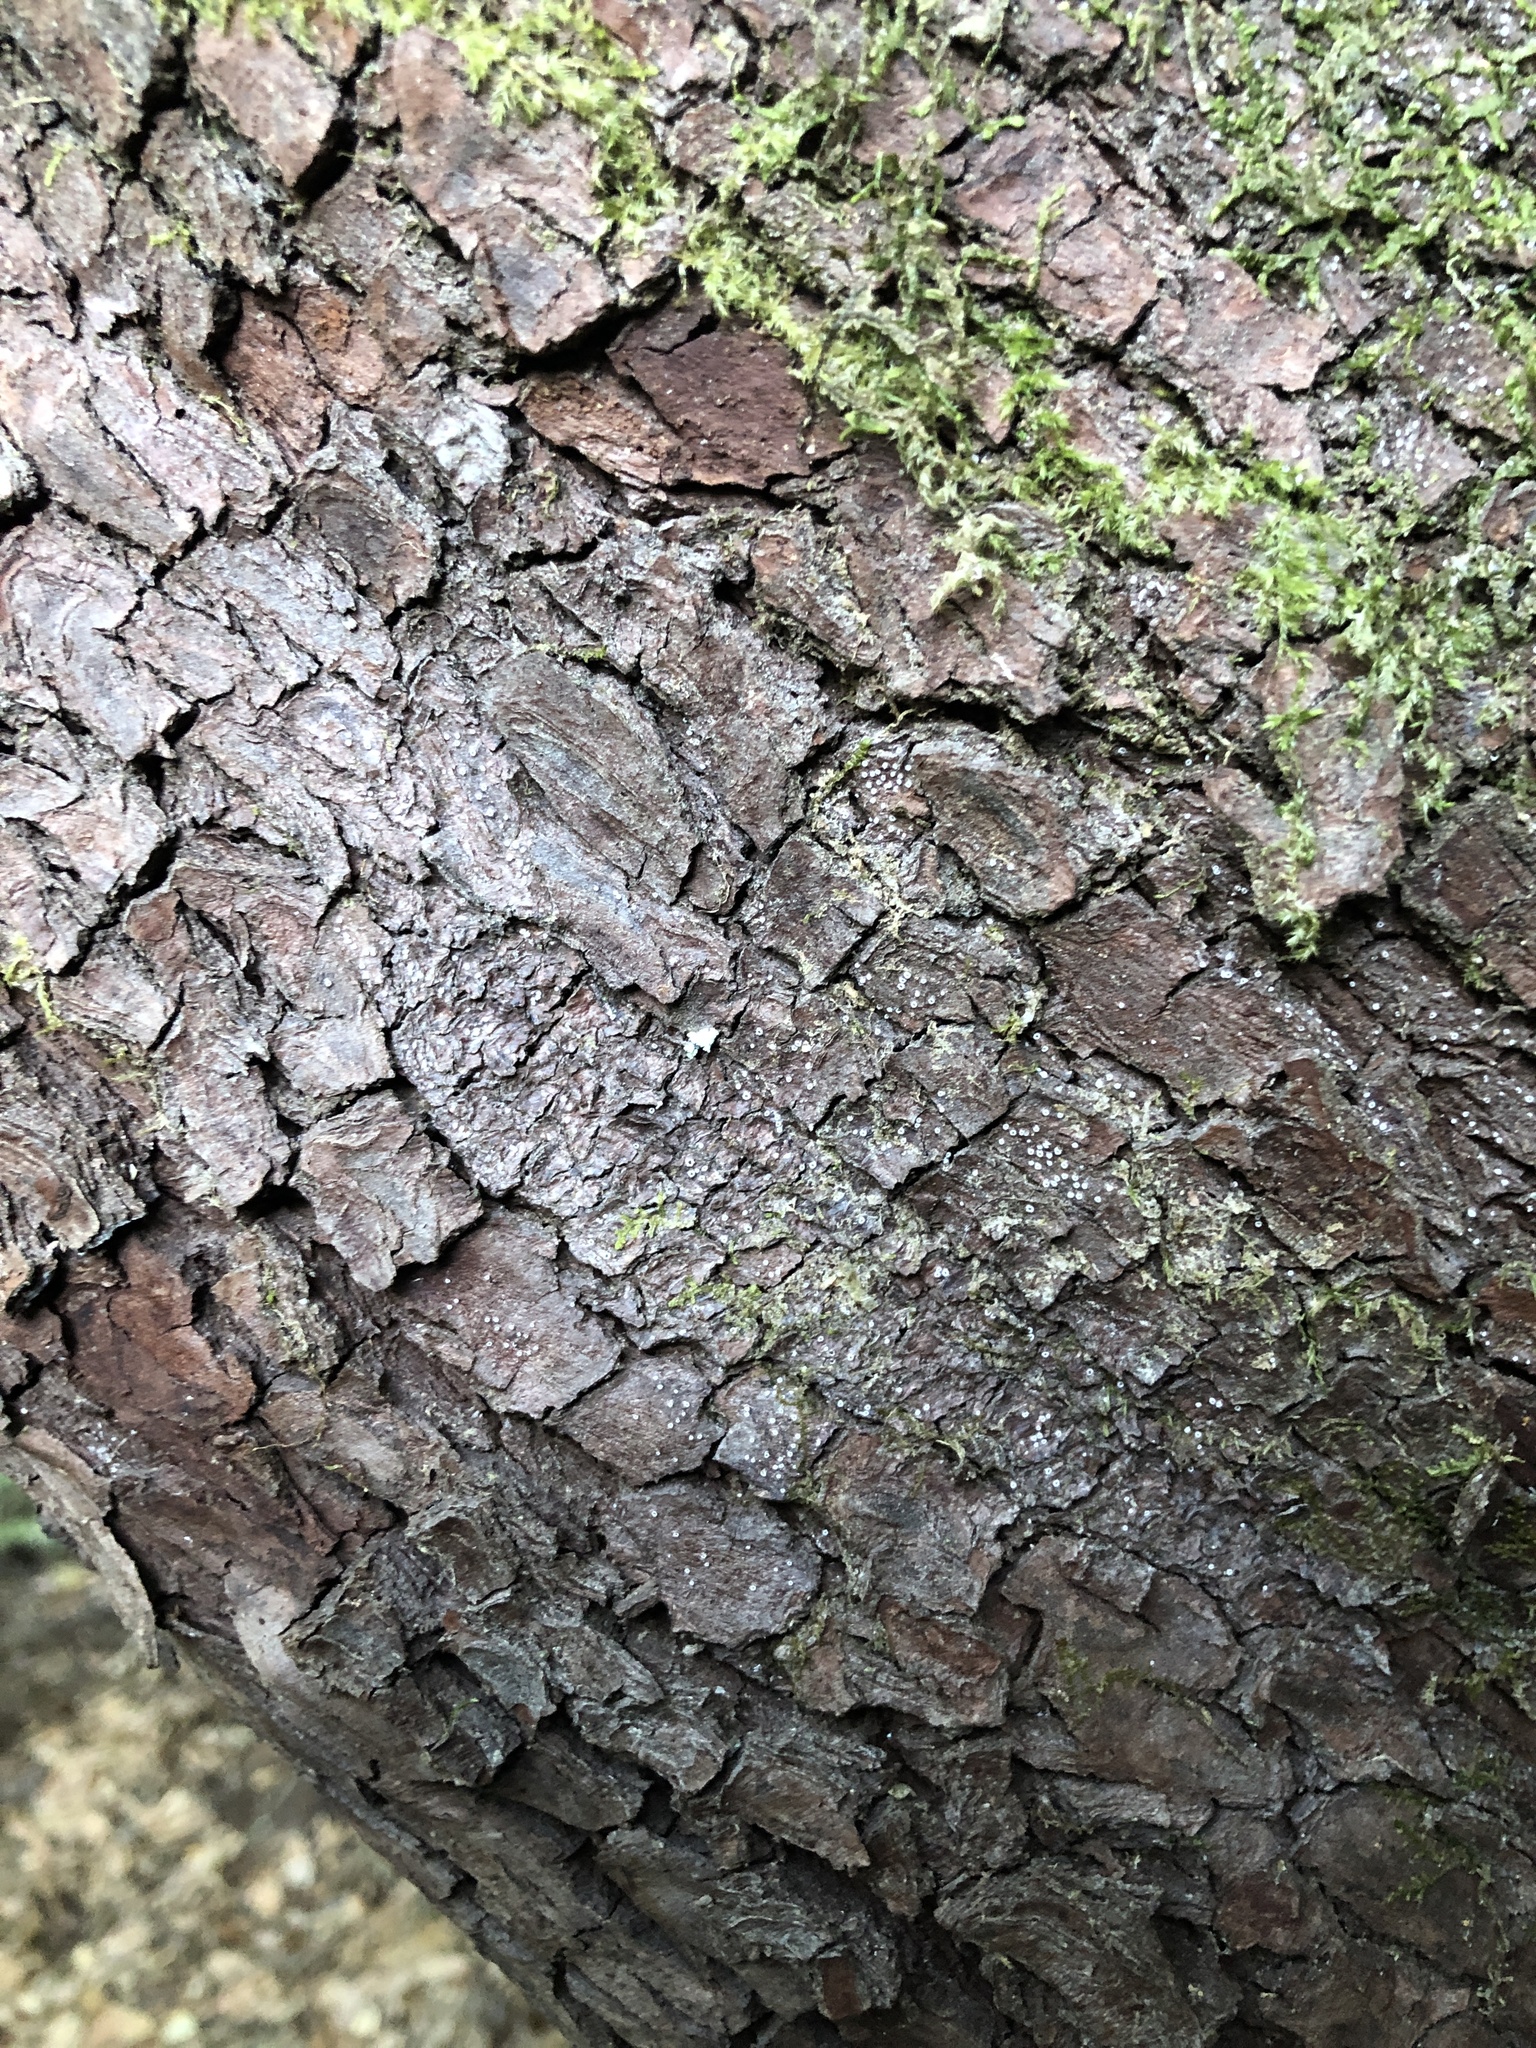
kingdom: Fungi
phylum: Ascomycota
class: Lecanoromycetes
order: Ostropales
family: Stictidaceae
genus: Stictis
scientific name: Stictis radiata
